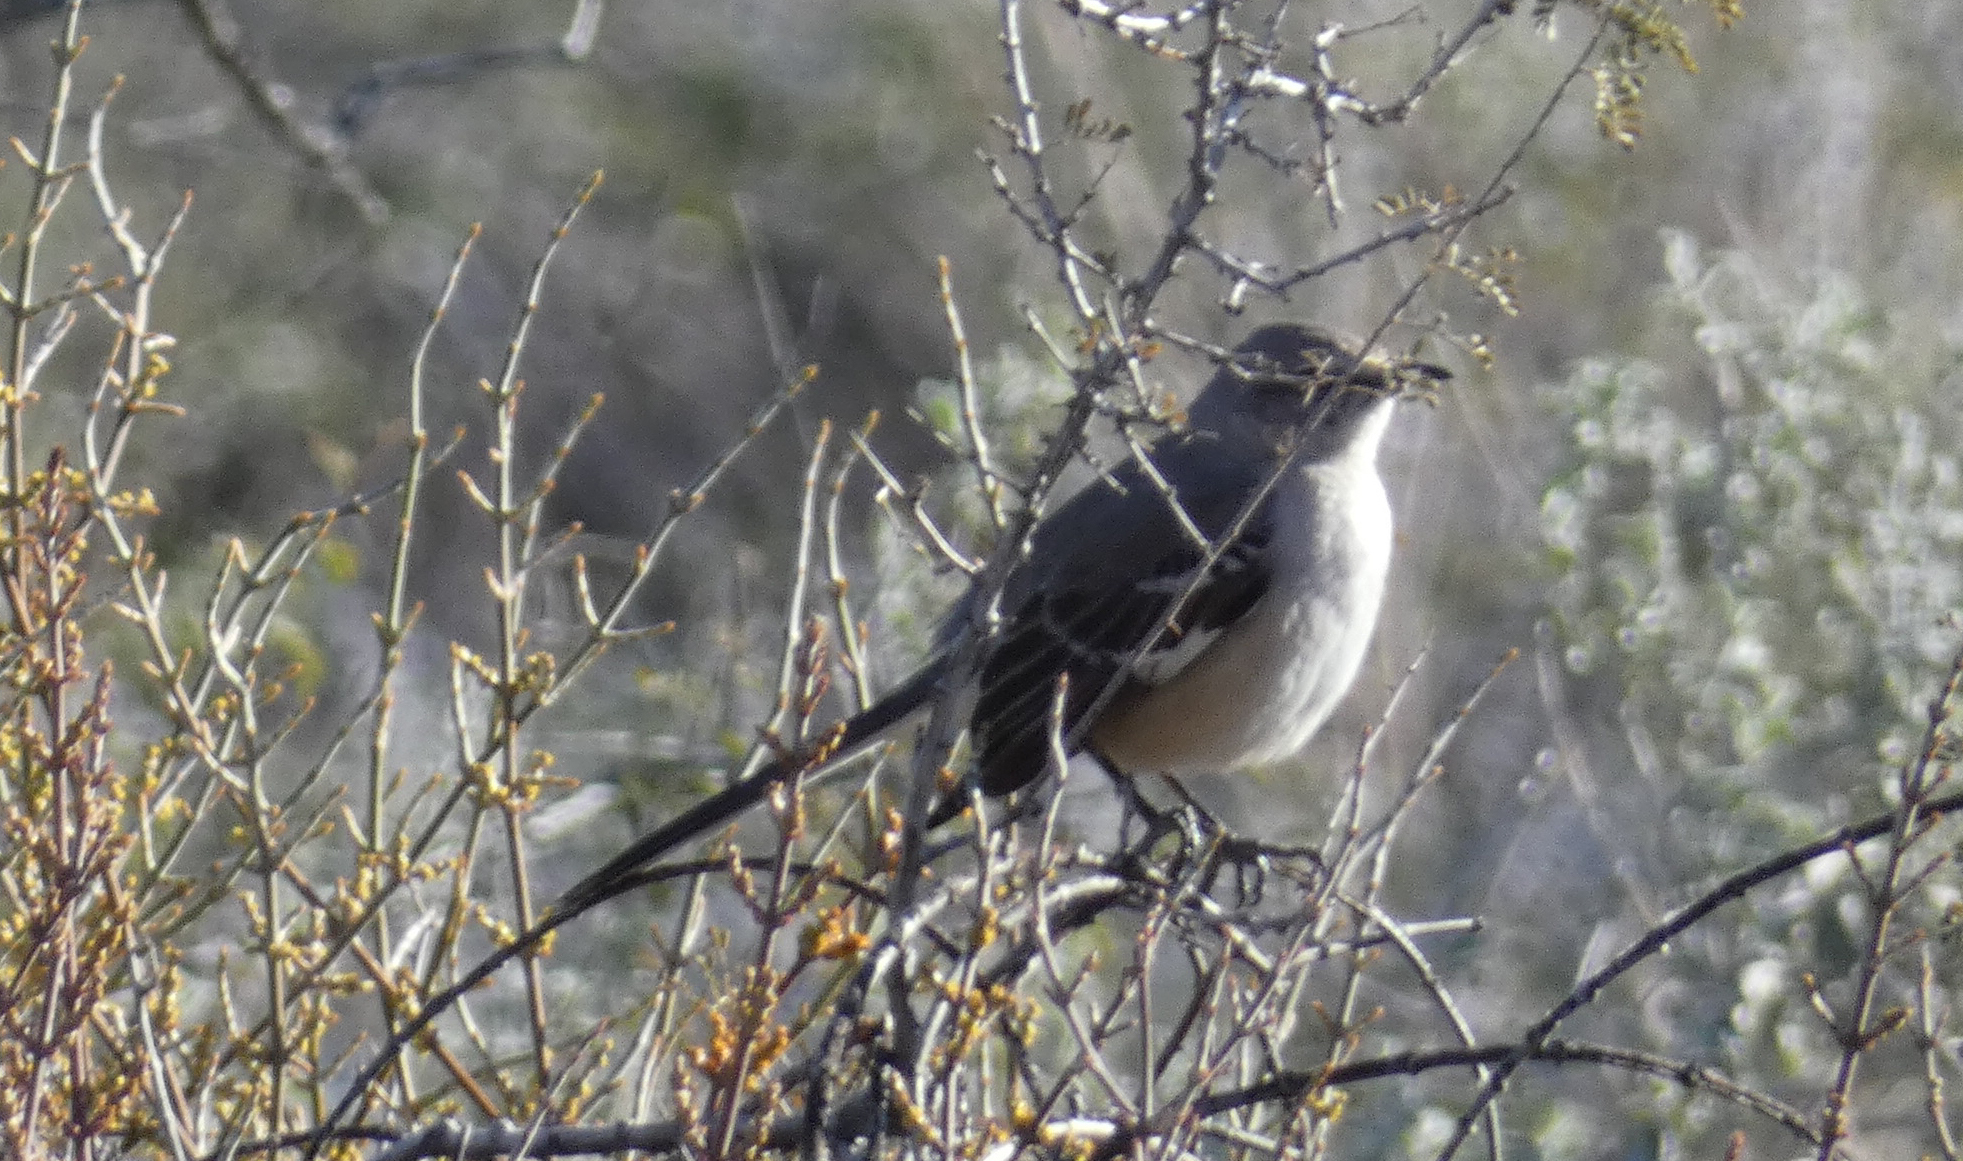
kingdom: Animalia
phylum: Chordata
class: Aves
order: Passeriformes
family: Mimidae
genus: Mimus
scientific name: Mimus polyglottos
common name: Northern mockingbird
